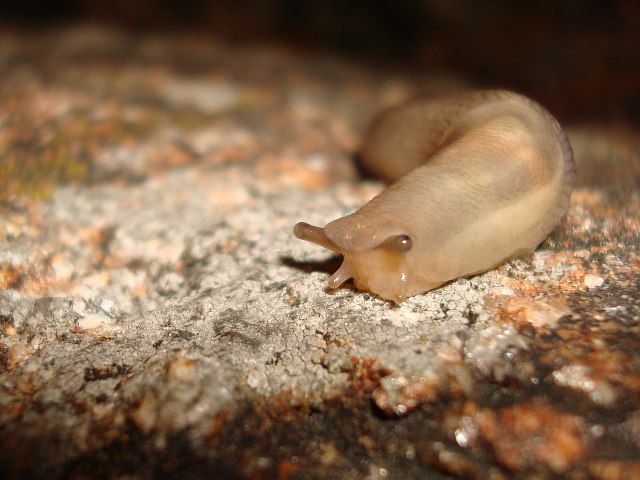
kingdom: Animalia
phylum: Mollusca
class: Gastropoda
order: Stylommatophora
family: Limacidae
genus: Lehmannia
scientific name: Lehmannia marginata
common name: Tree slug
